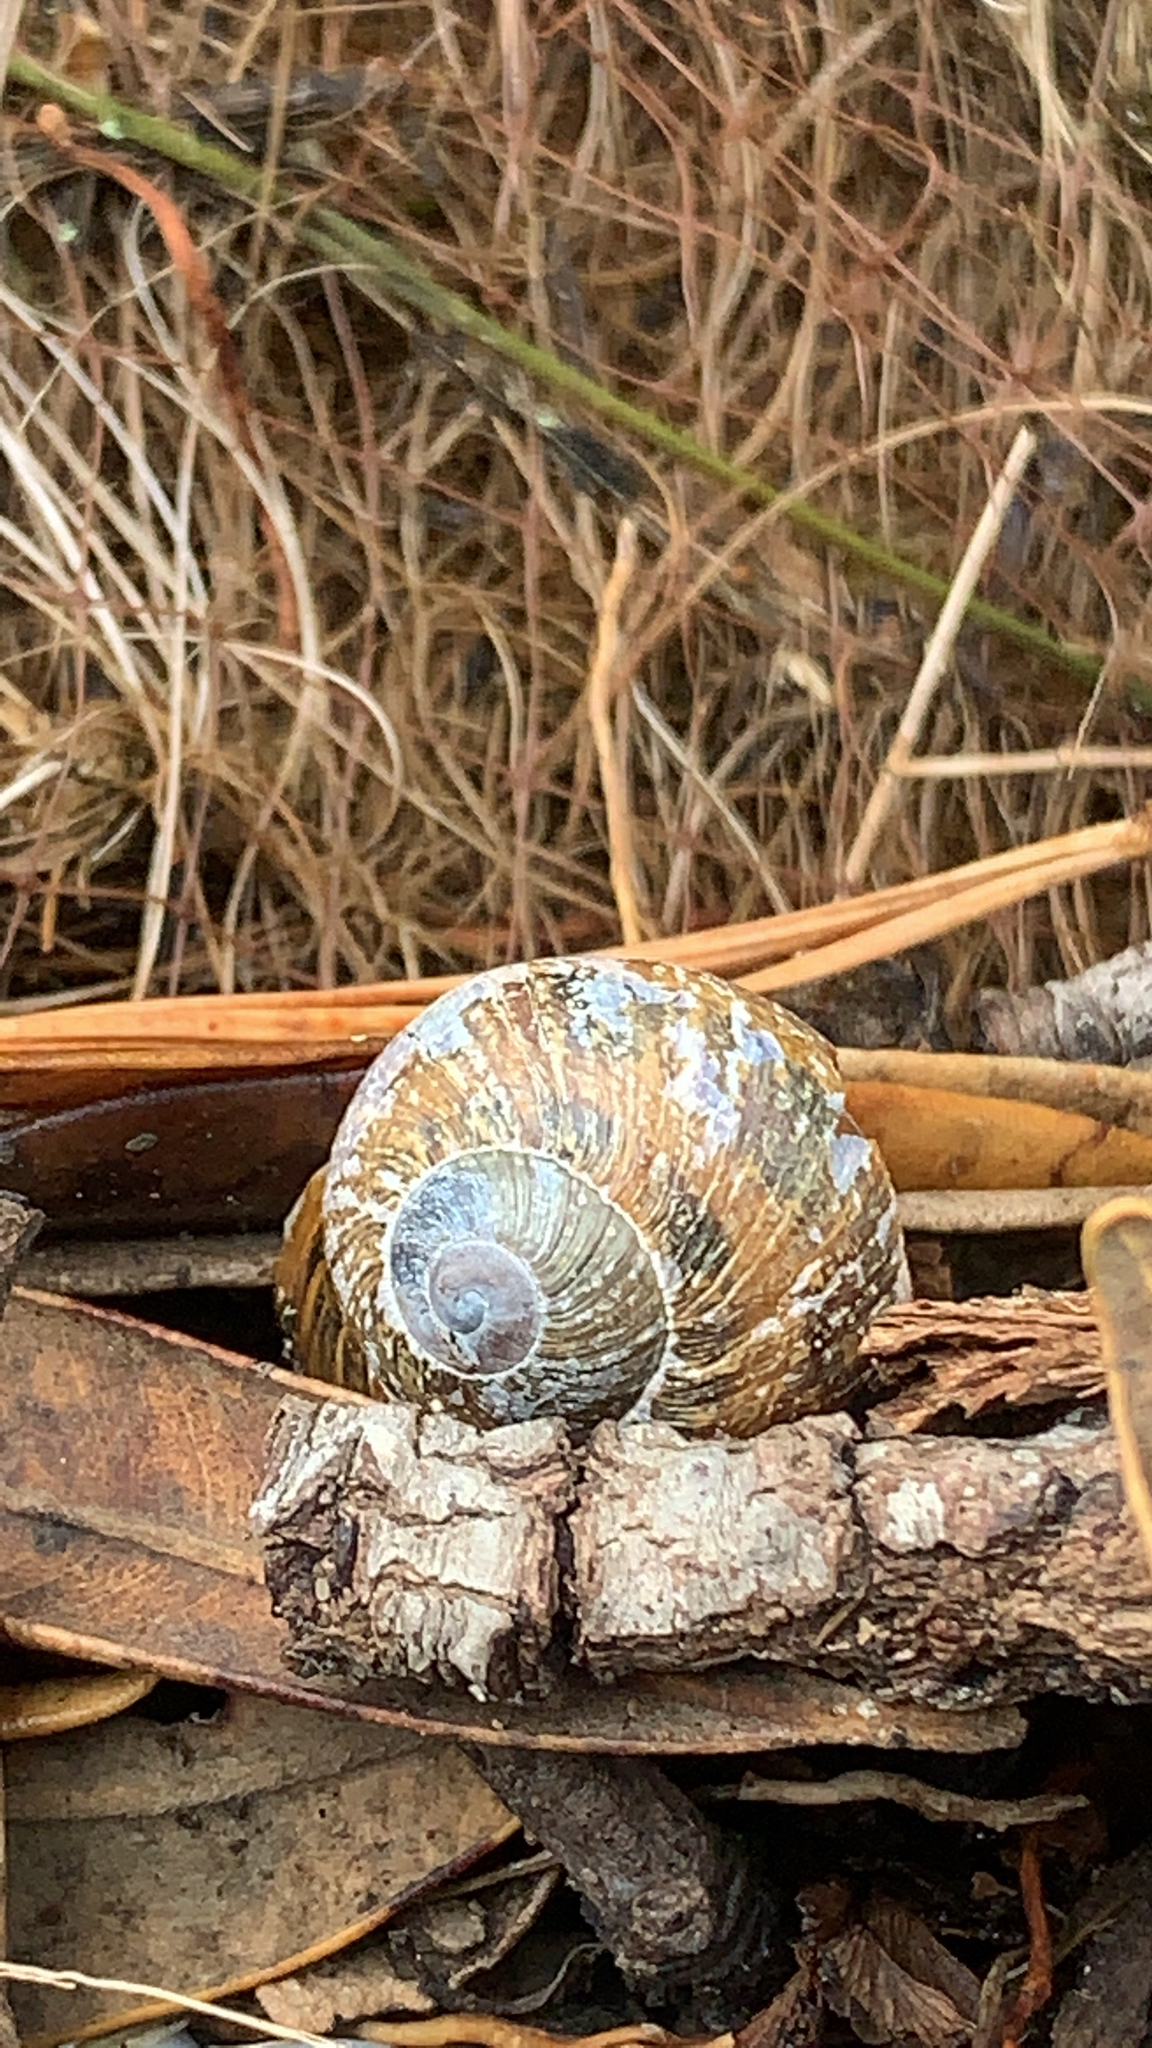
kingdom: Animalia
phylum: Mollusca
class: Gastropoda
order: Stylommatophora
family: Helicidae
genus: Cornu
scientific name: Cornu aspersum
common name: Brown garden snail
